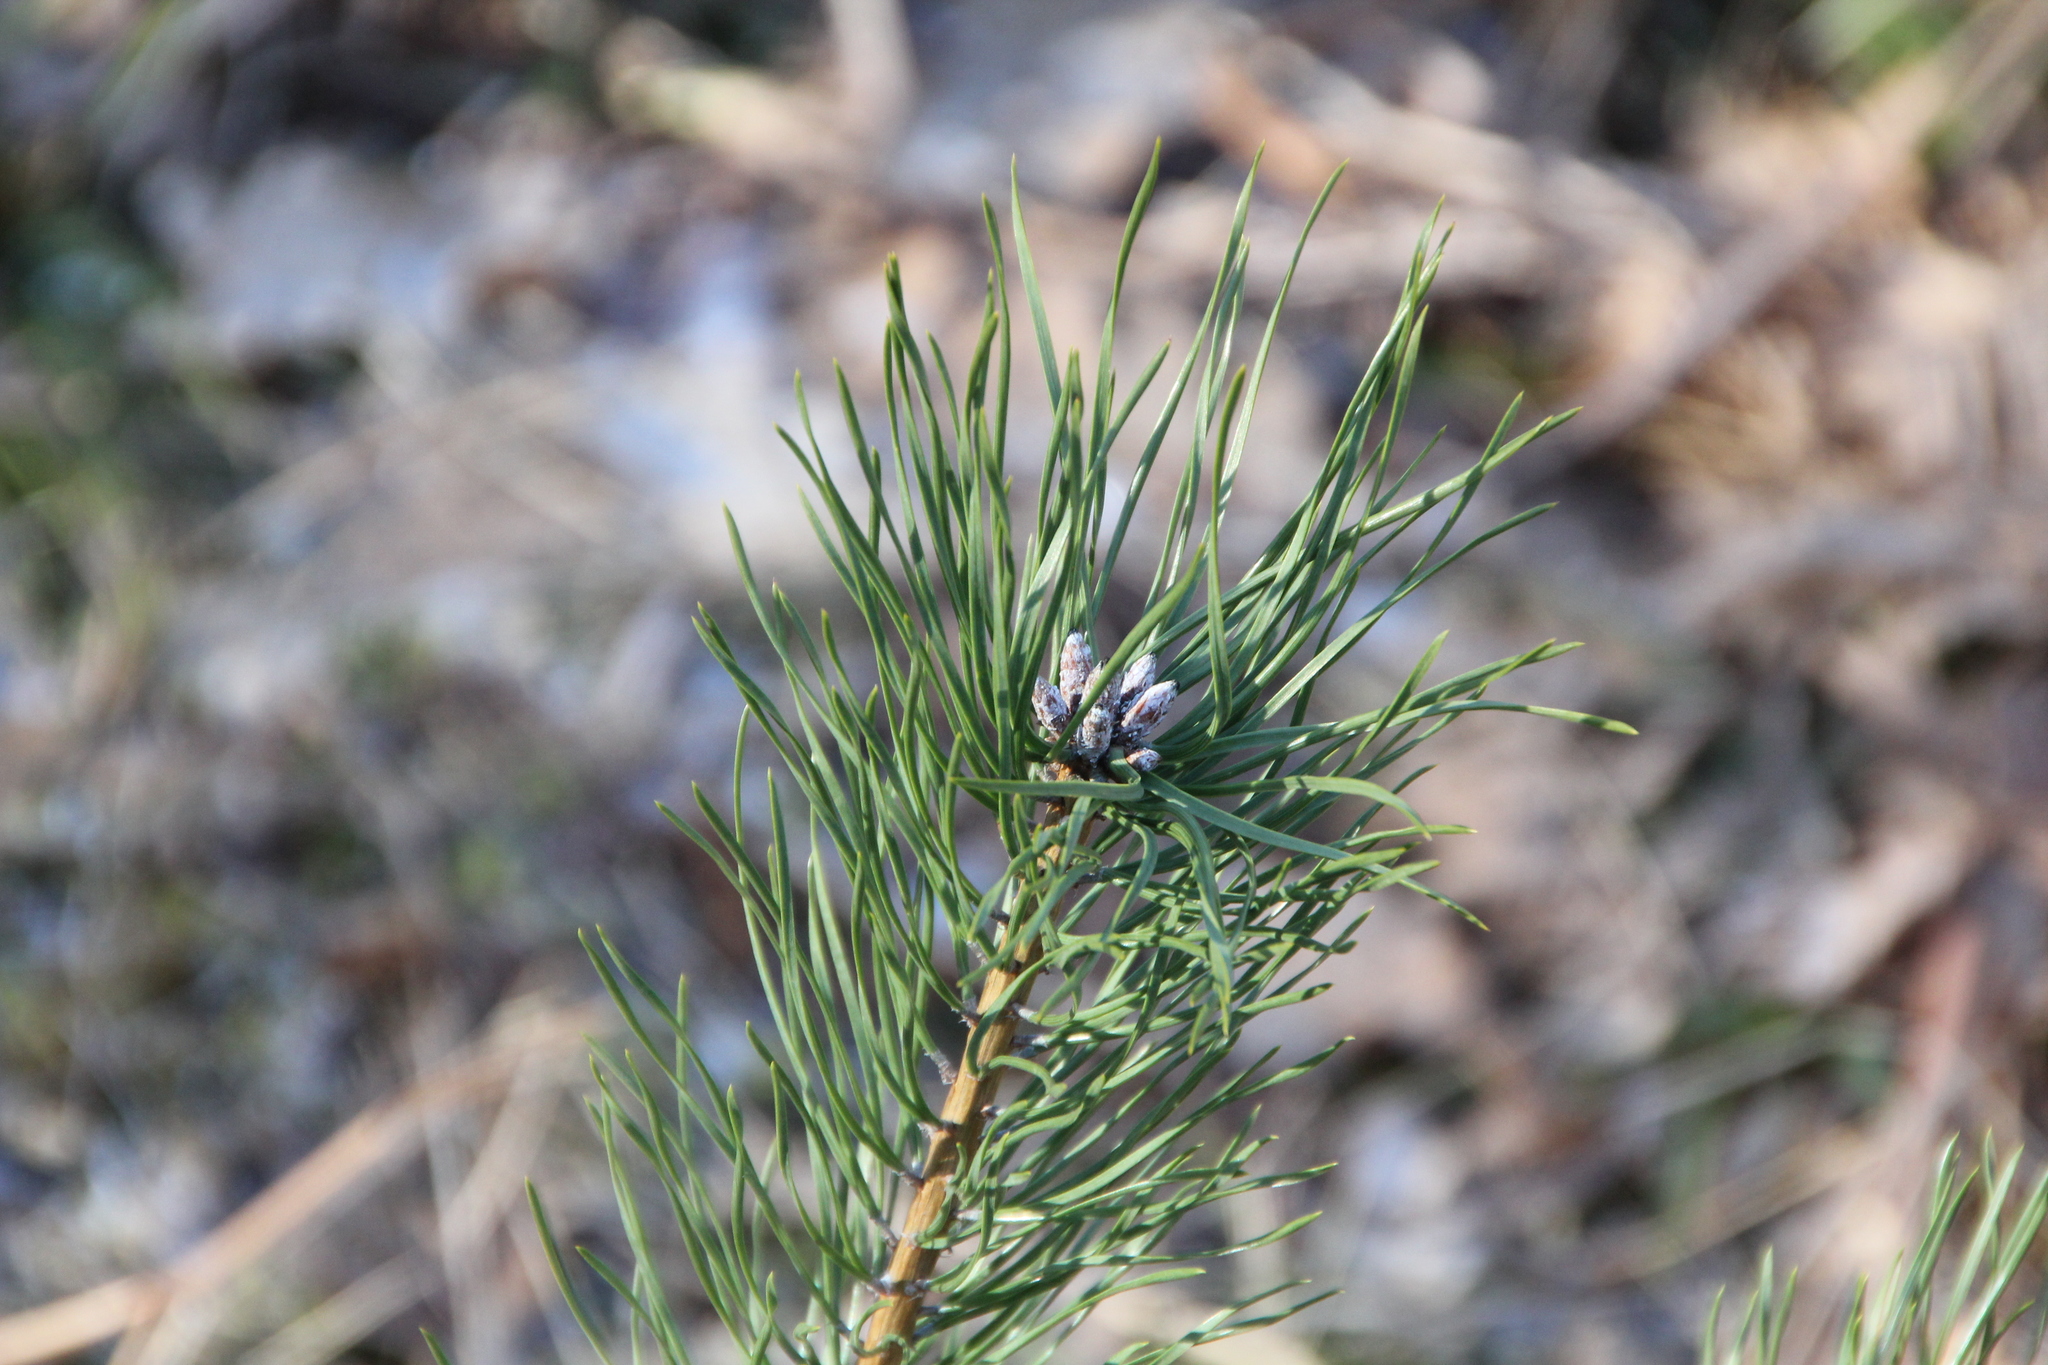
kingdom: Plantae
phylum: Tracheophyta
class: Pinopsida
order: Pinales
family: Pinaceae
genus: Pinus
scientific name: Pinus sylvestris
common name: Scots pine
